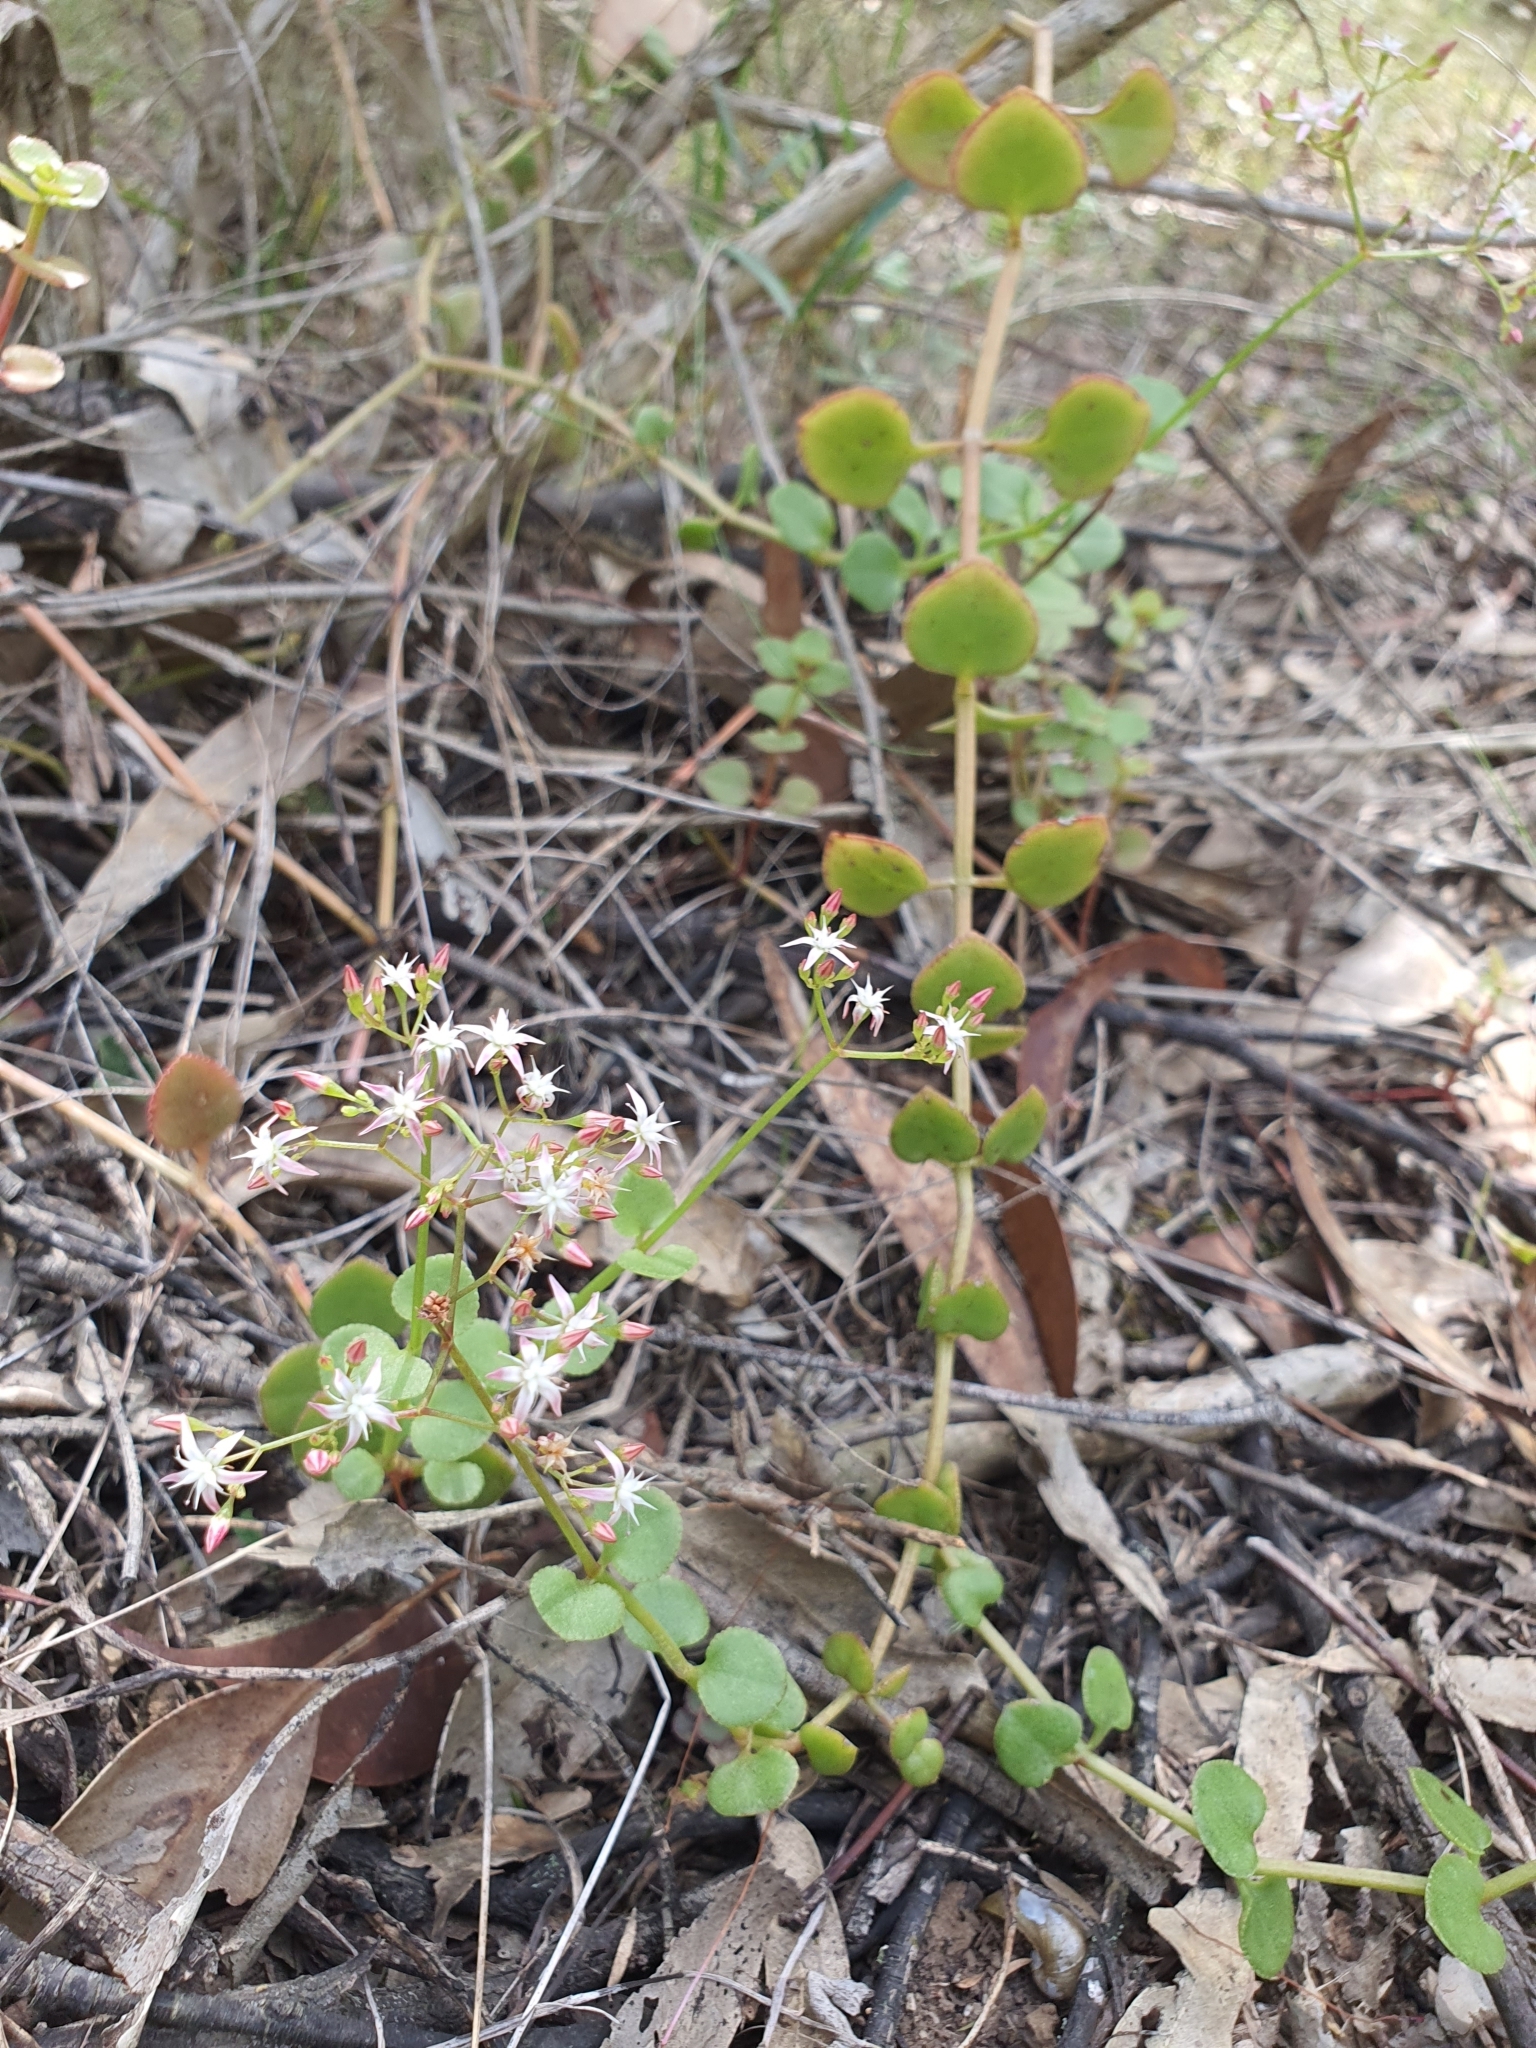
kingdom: Plantae
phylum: Tracheophyta
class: Magnoliopsida
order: Saxifragales
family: Crassulaceae
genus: Crassula
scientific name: Crassula sarmentosa
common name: Jade-tree
